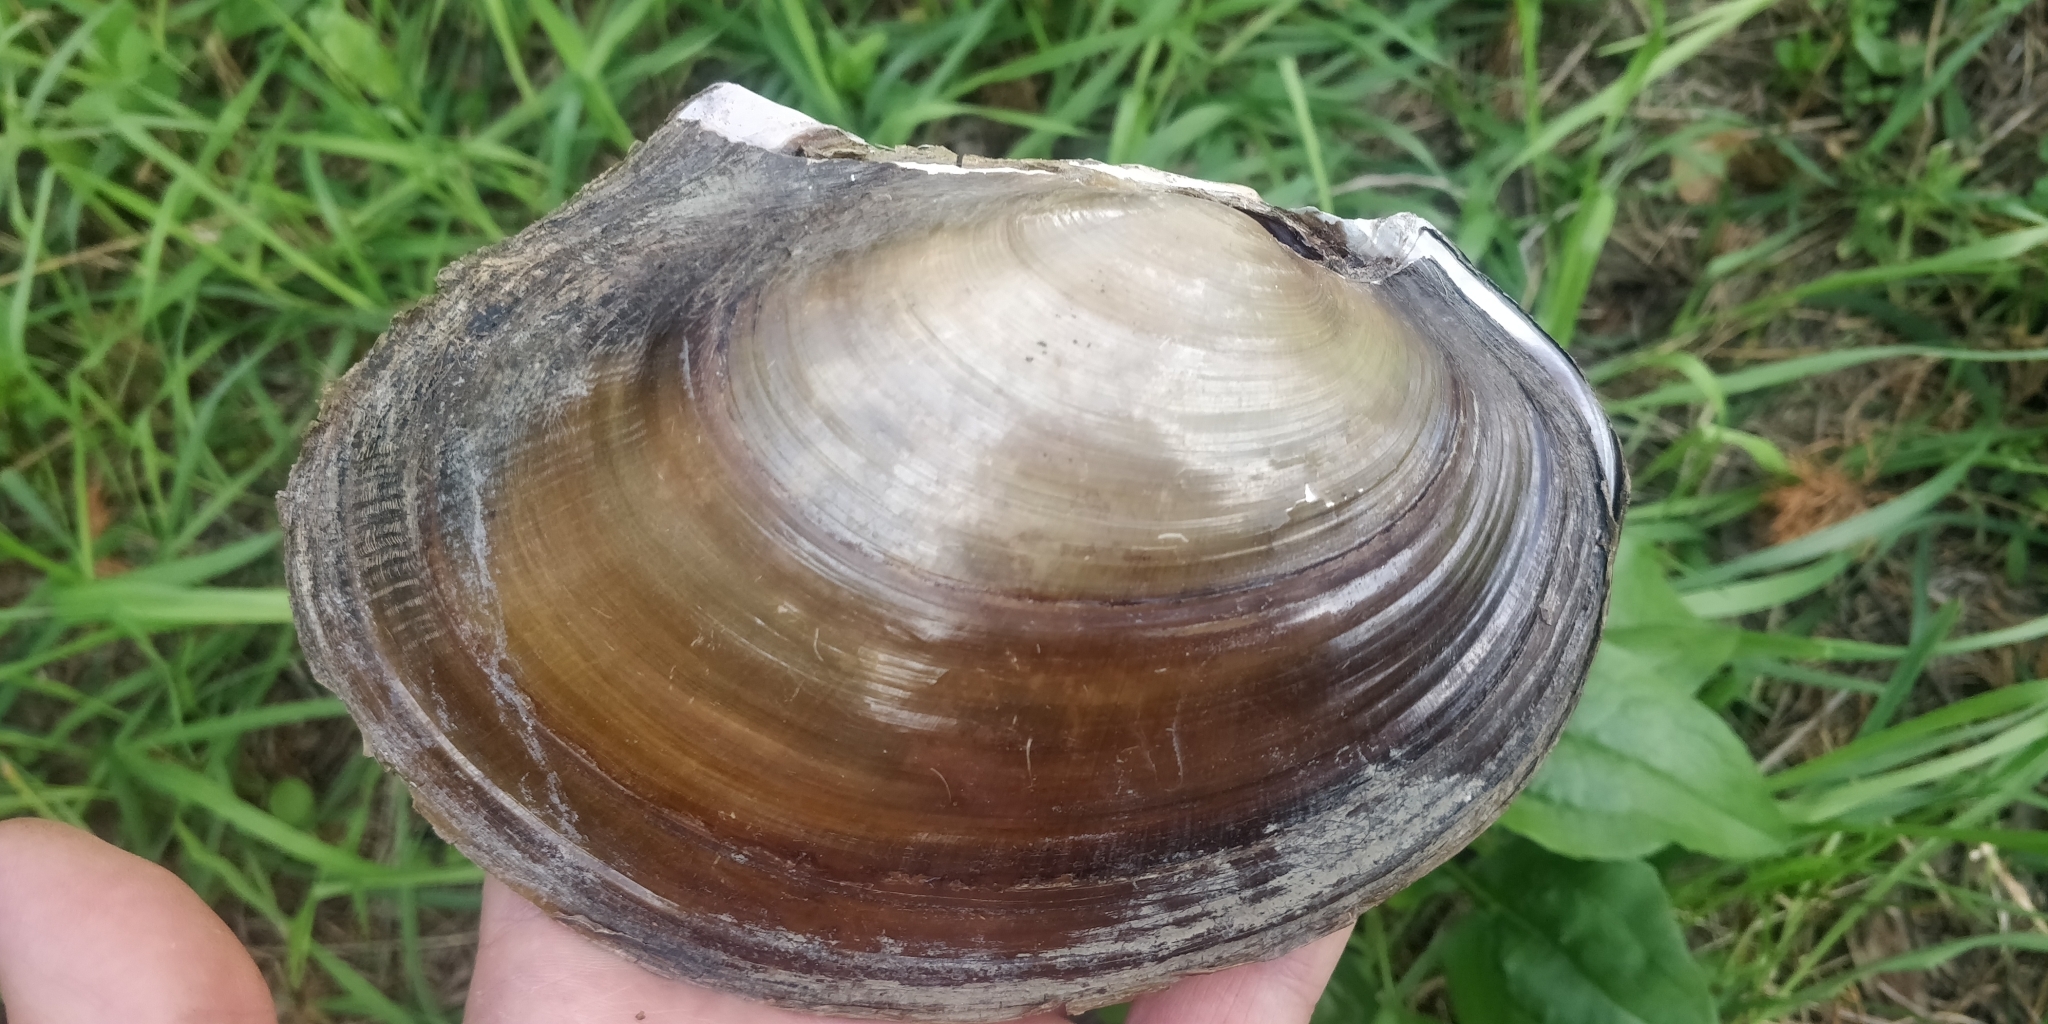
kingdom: Animalia
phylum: Mollusca
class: Bivalvia
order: Unionida
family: Unionidae
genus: Potamilus
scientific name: Potamilus ohiensis
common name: Pink papershell
